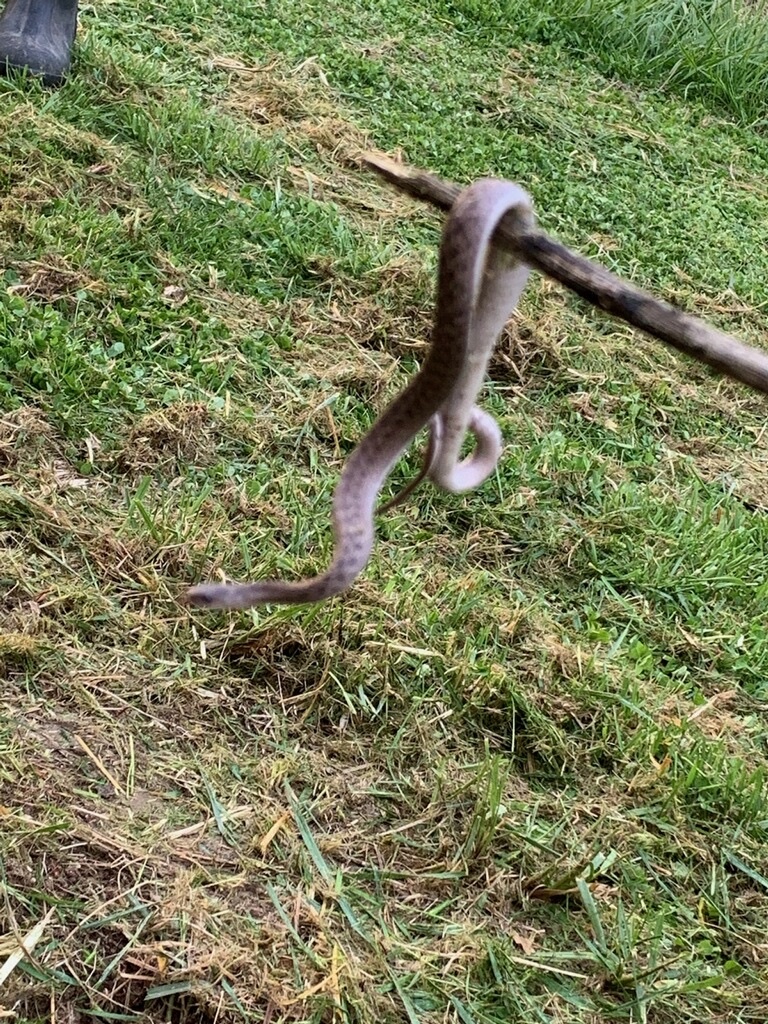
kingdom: Animalia
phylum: Chordata
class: Squamata
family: Colubridae
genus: Storeria
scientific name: Storeria dekayi
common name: (dekay’s) brown snake
